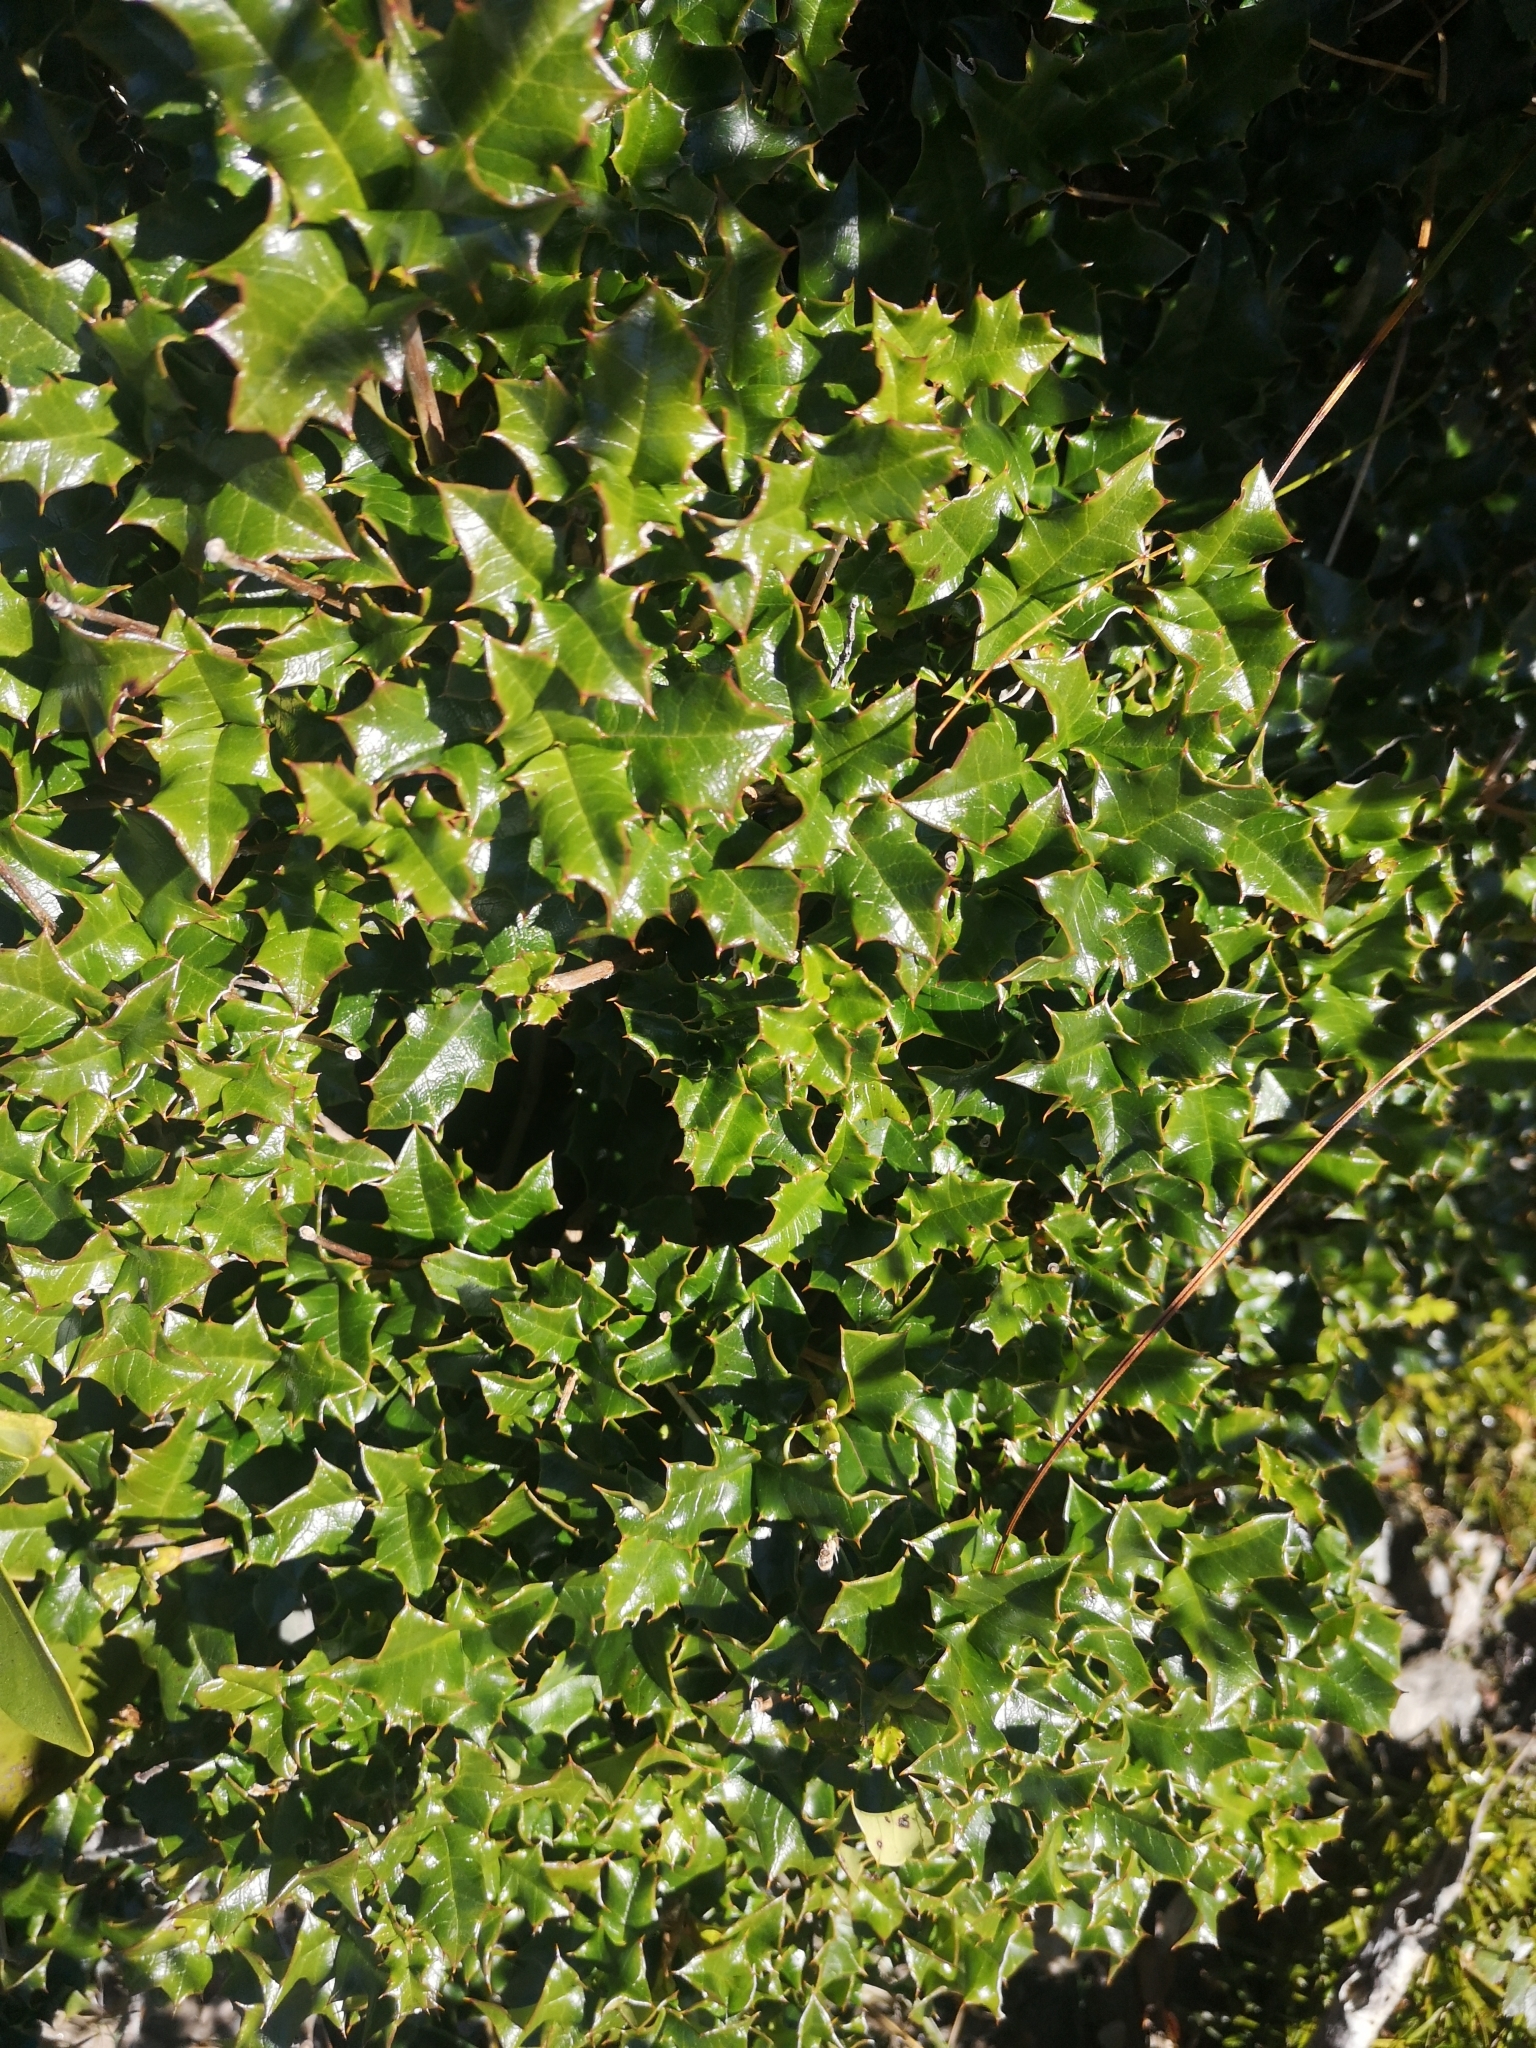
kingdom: Plantae
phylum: Tracheophyta
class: Magnoliopsida
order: Bruniales
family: Columelliaceae
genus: Desfontainia
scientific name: Desfontainia fulgens
